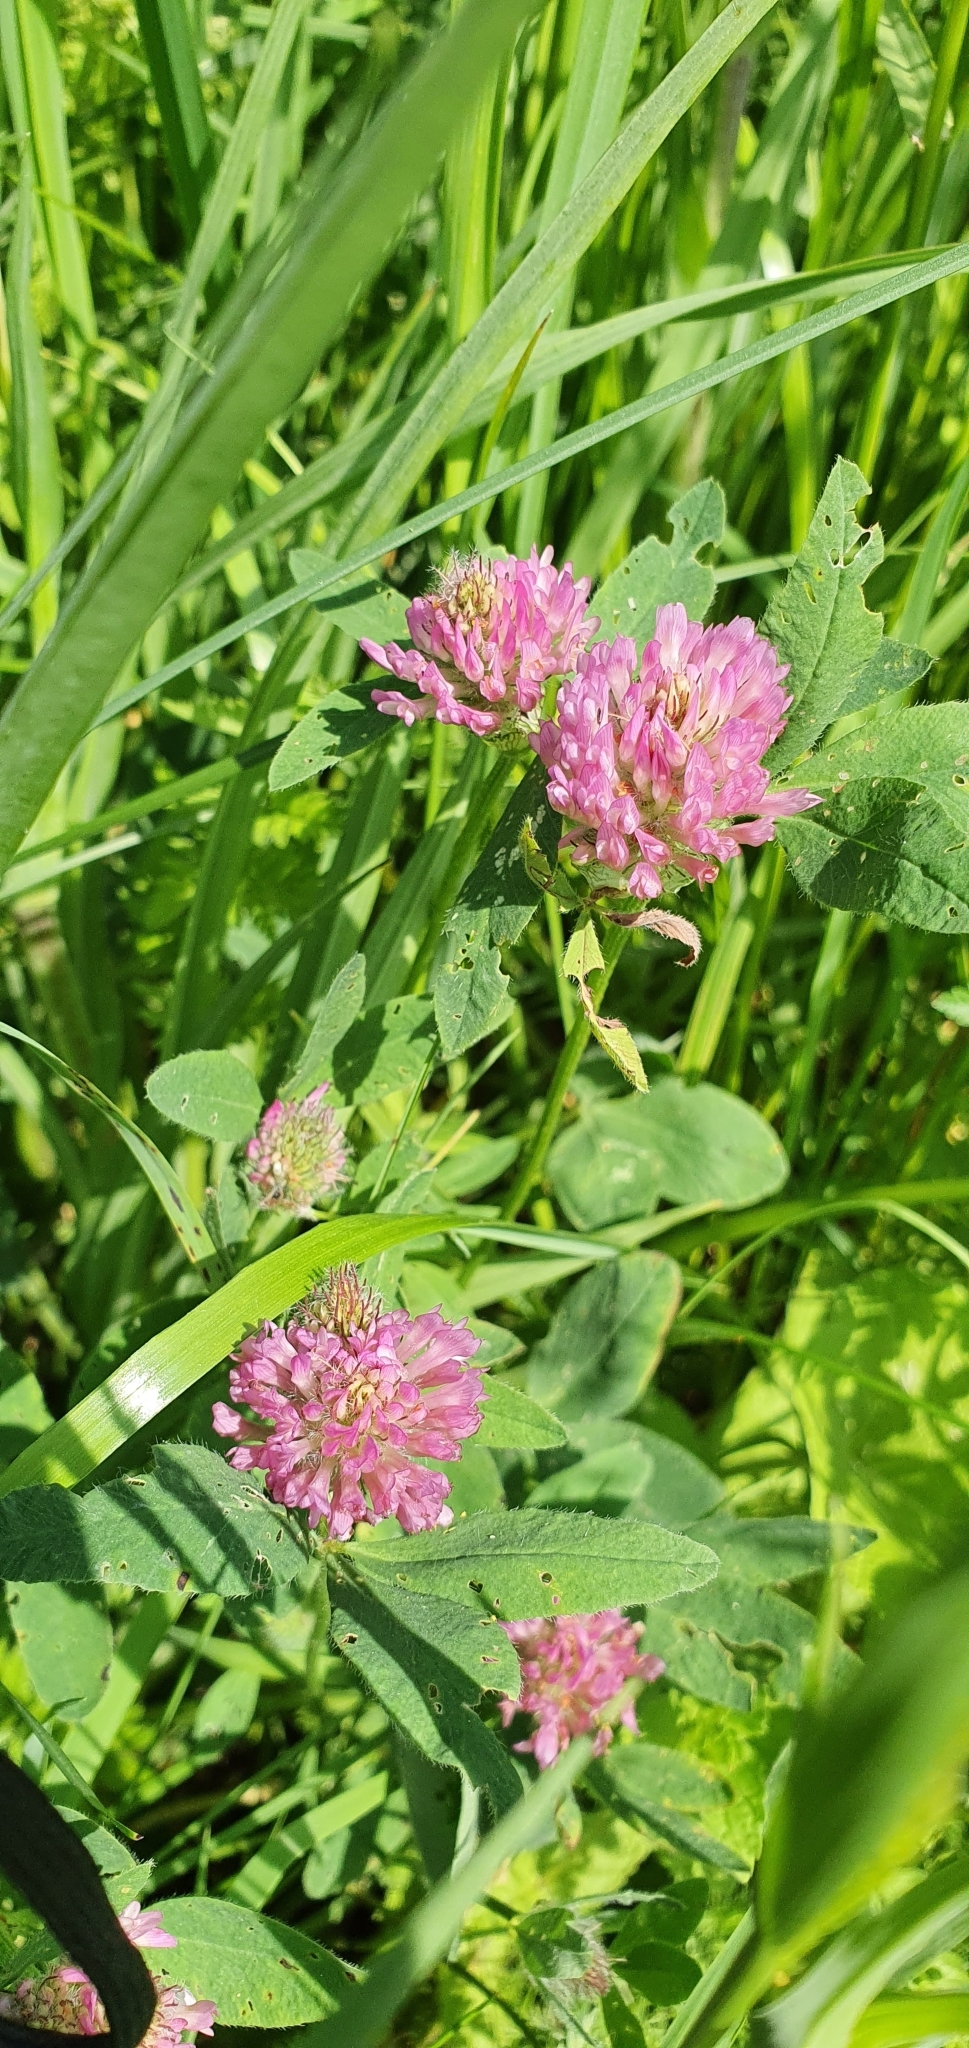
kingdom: Plantae
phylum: Tracheophyta
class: Magnoliopsida
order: Fabales
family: Fabaceae
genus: Trifolium
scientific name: Trifolium pratense
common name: Red clover
